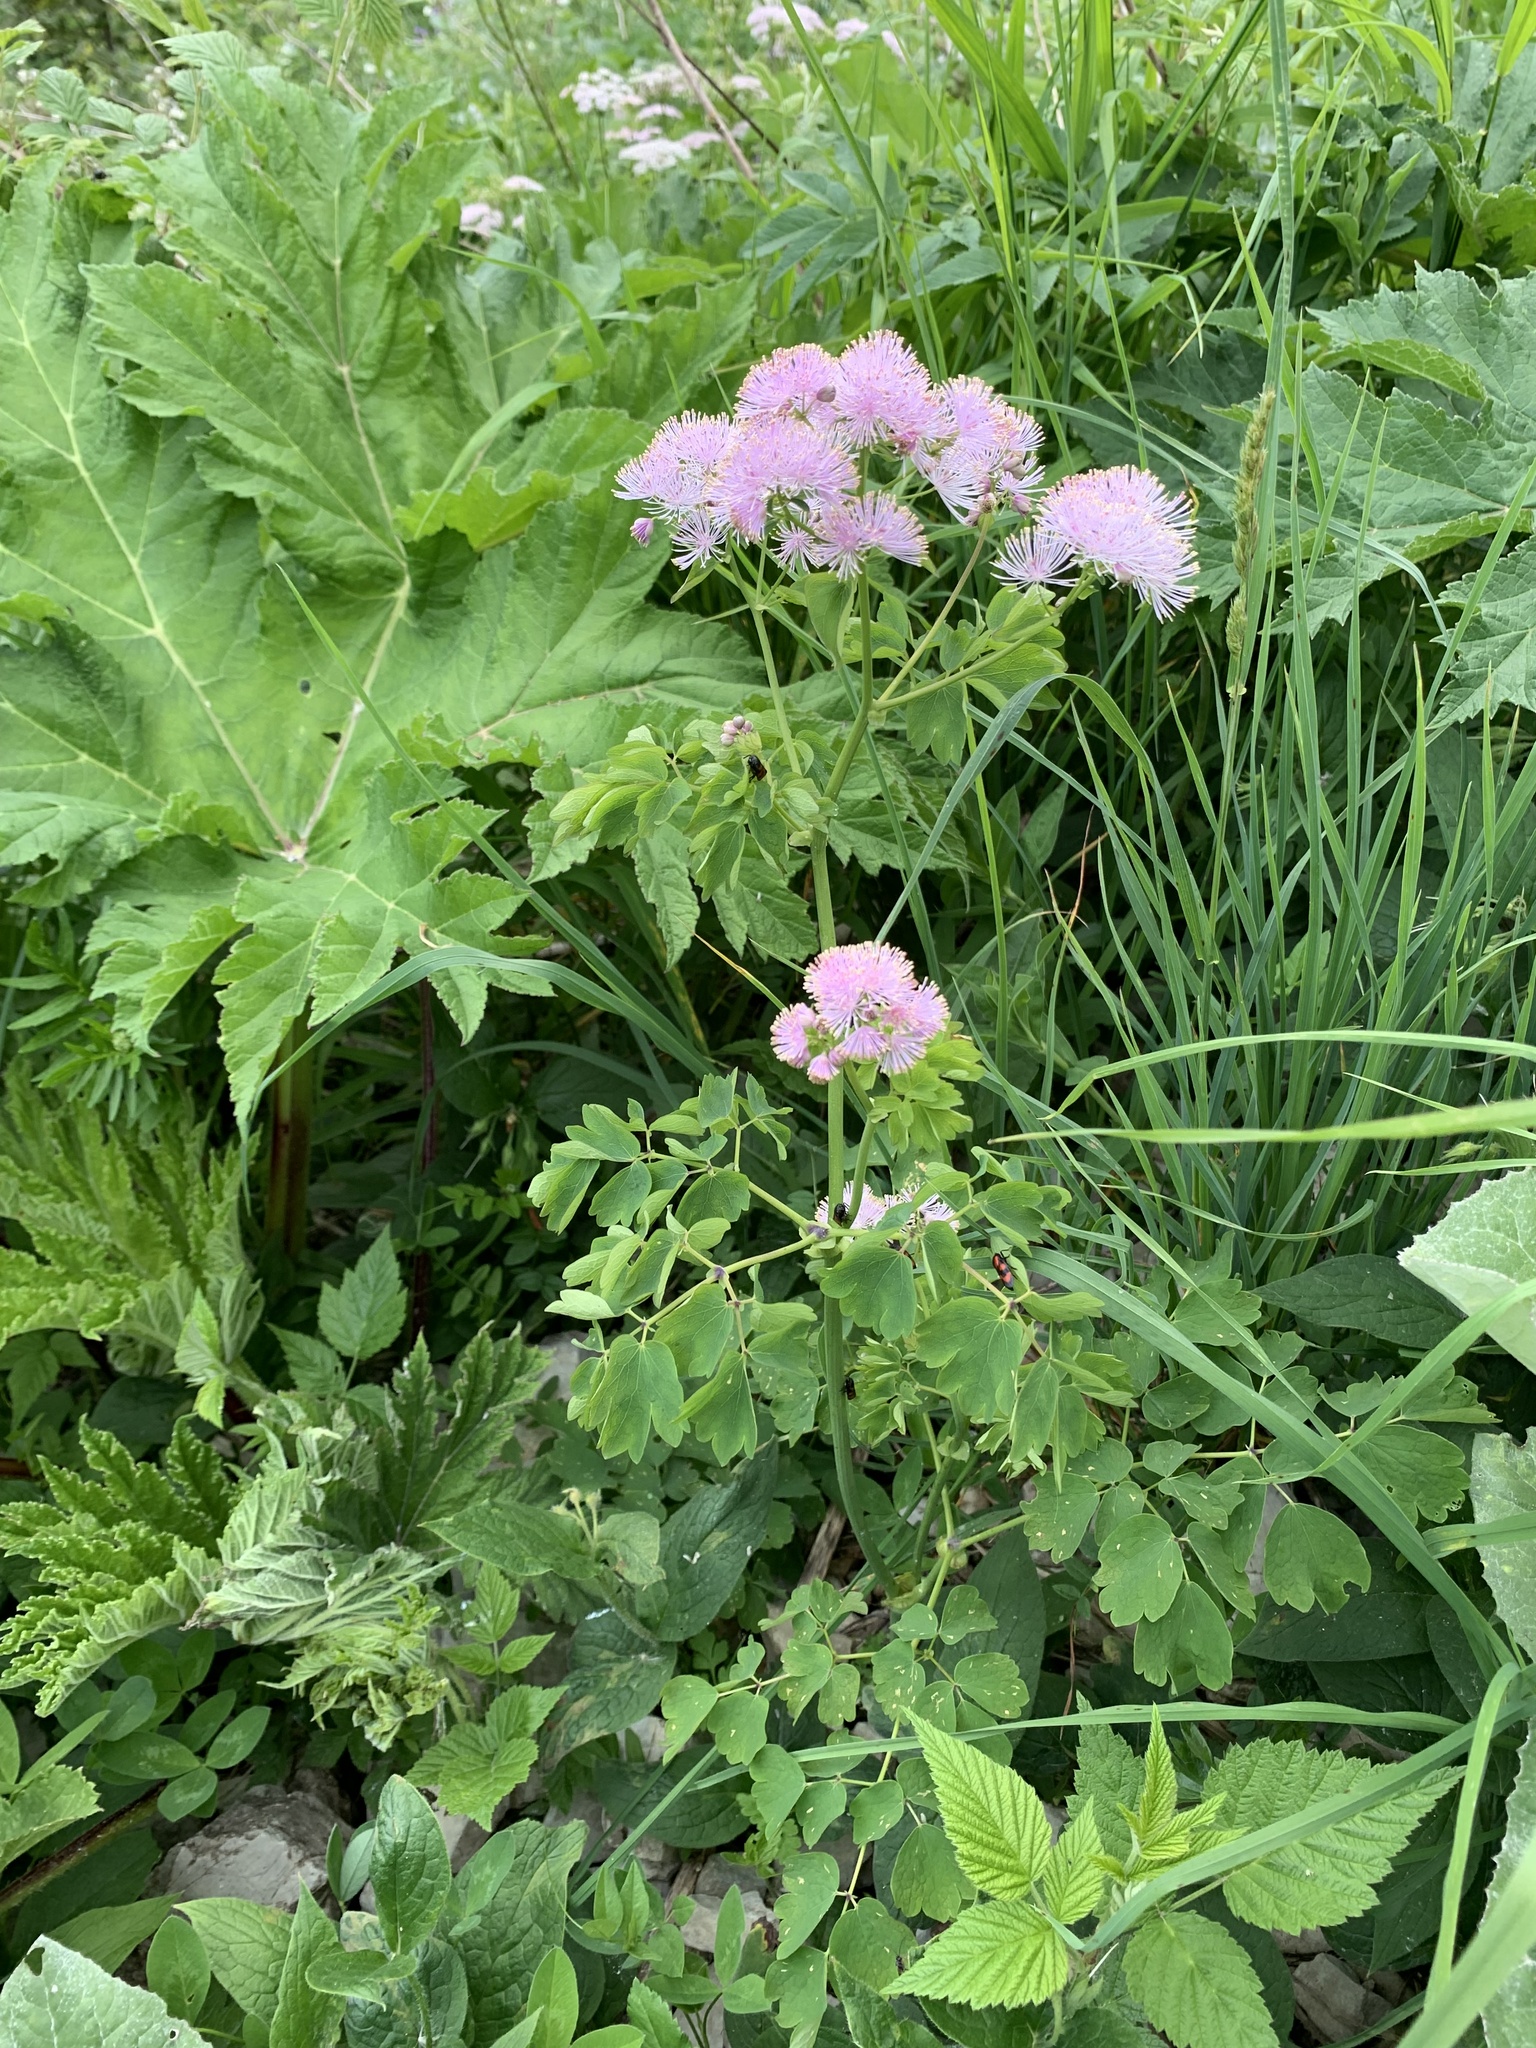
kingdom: Plantae
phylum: Tracheophyta
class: Magnoliopsida
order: Ranunculales
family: Ranunculaceae
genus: Thalictrum
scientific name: Thalictrum aquilegiifolium
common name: French meadow-rue
